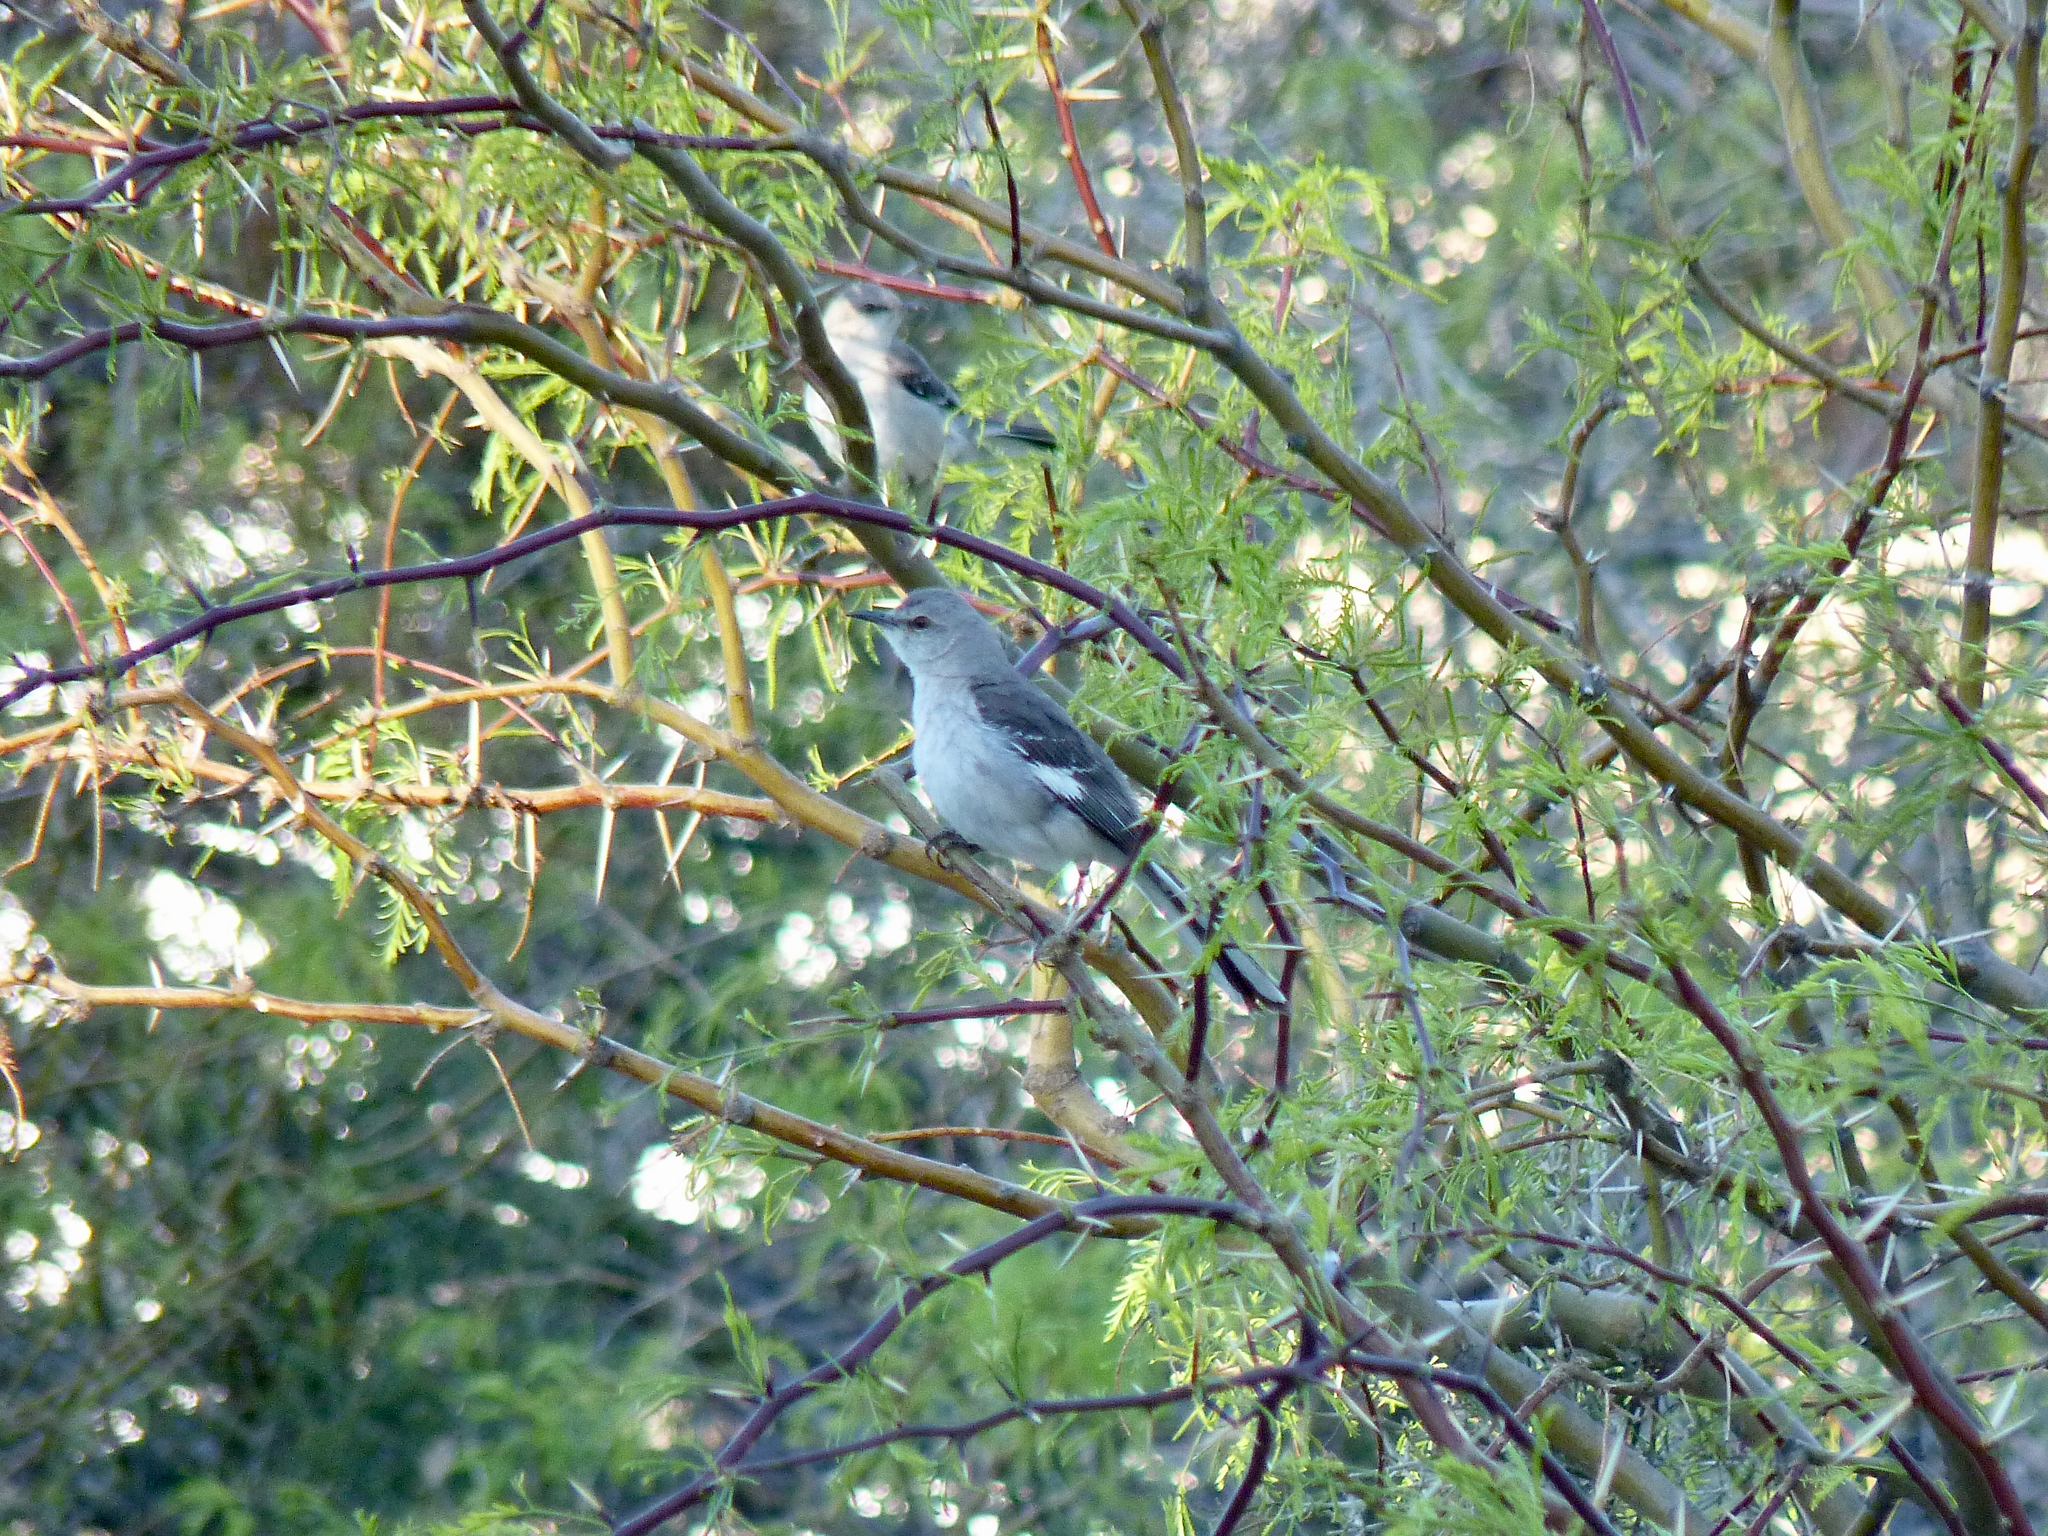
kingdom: Animalia
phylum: Chordata
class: Aves
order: Passeriformes
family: Mimidae
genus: Mimus
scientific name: Mimus polyglottos
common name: Northern mockingbird
